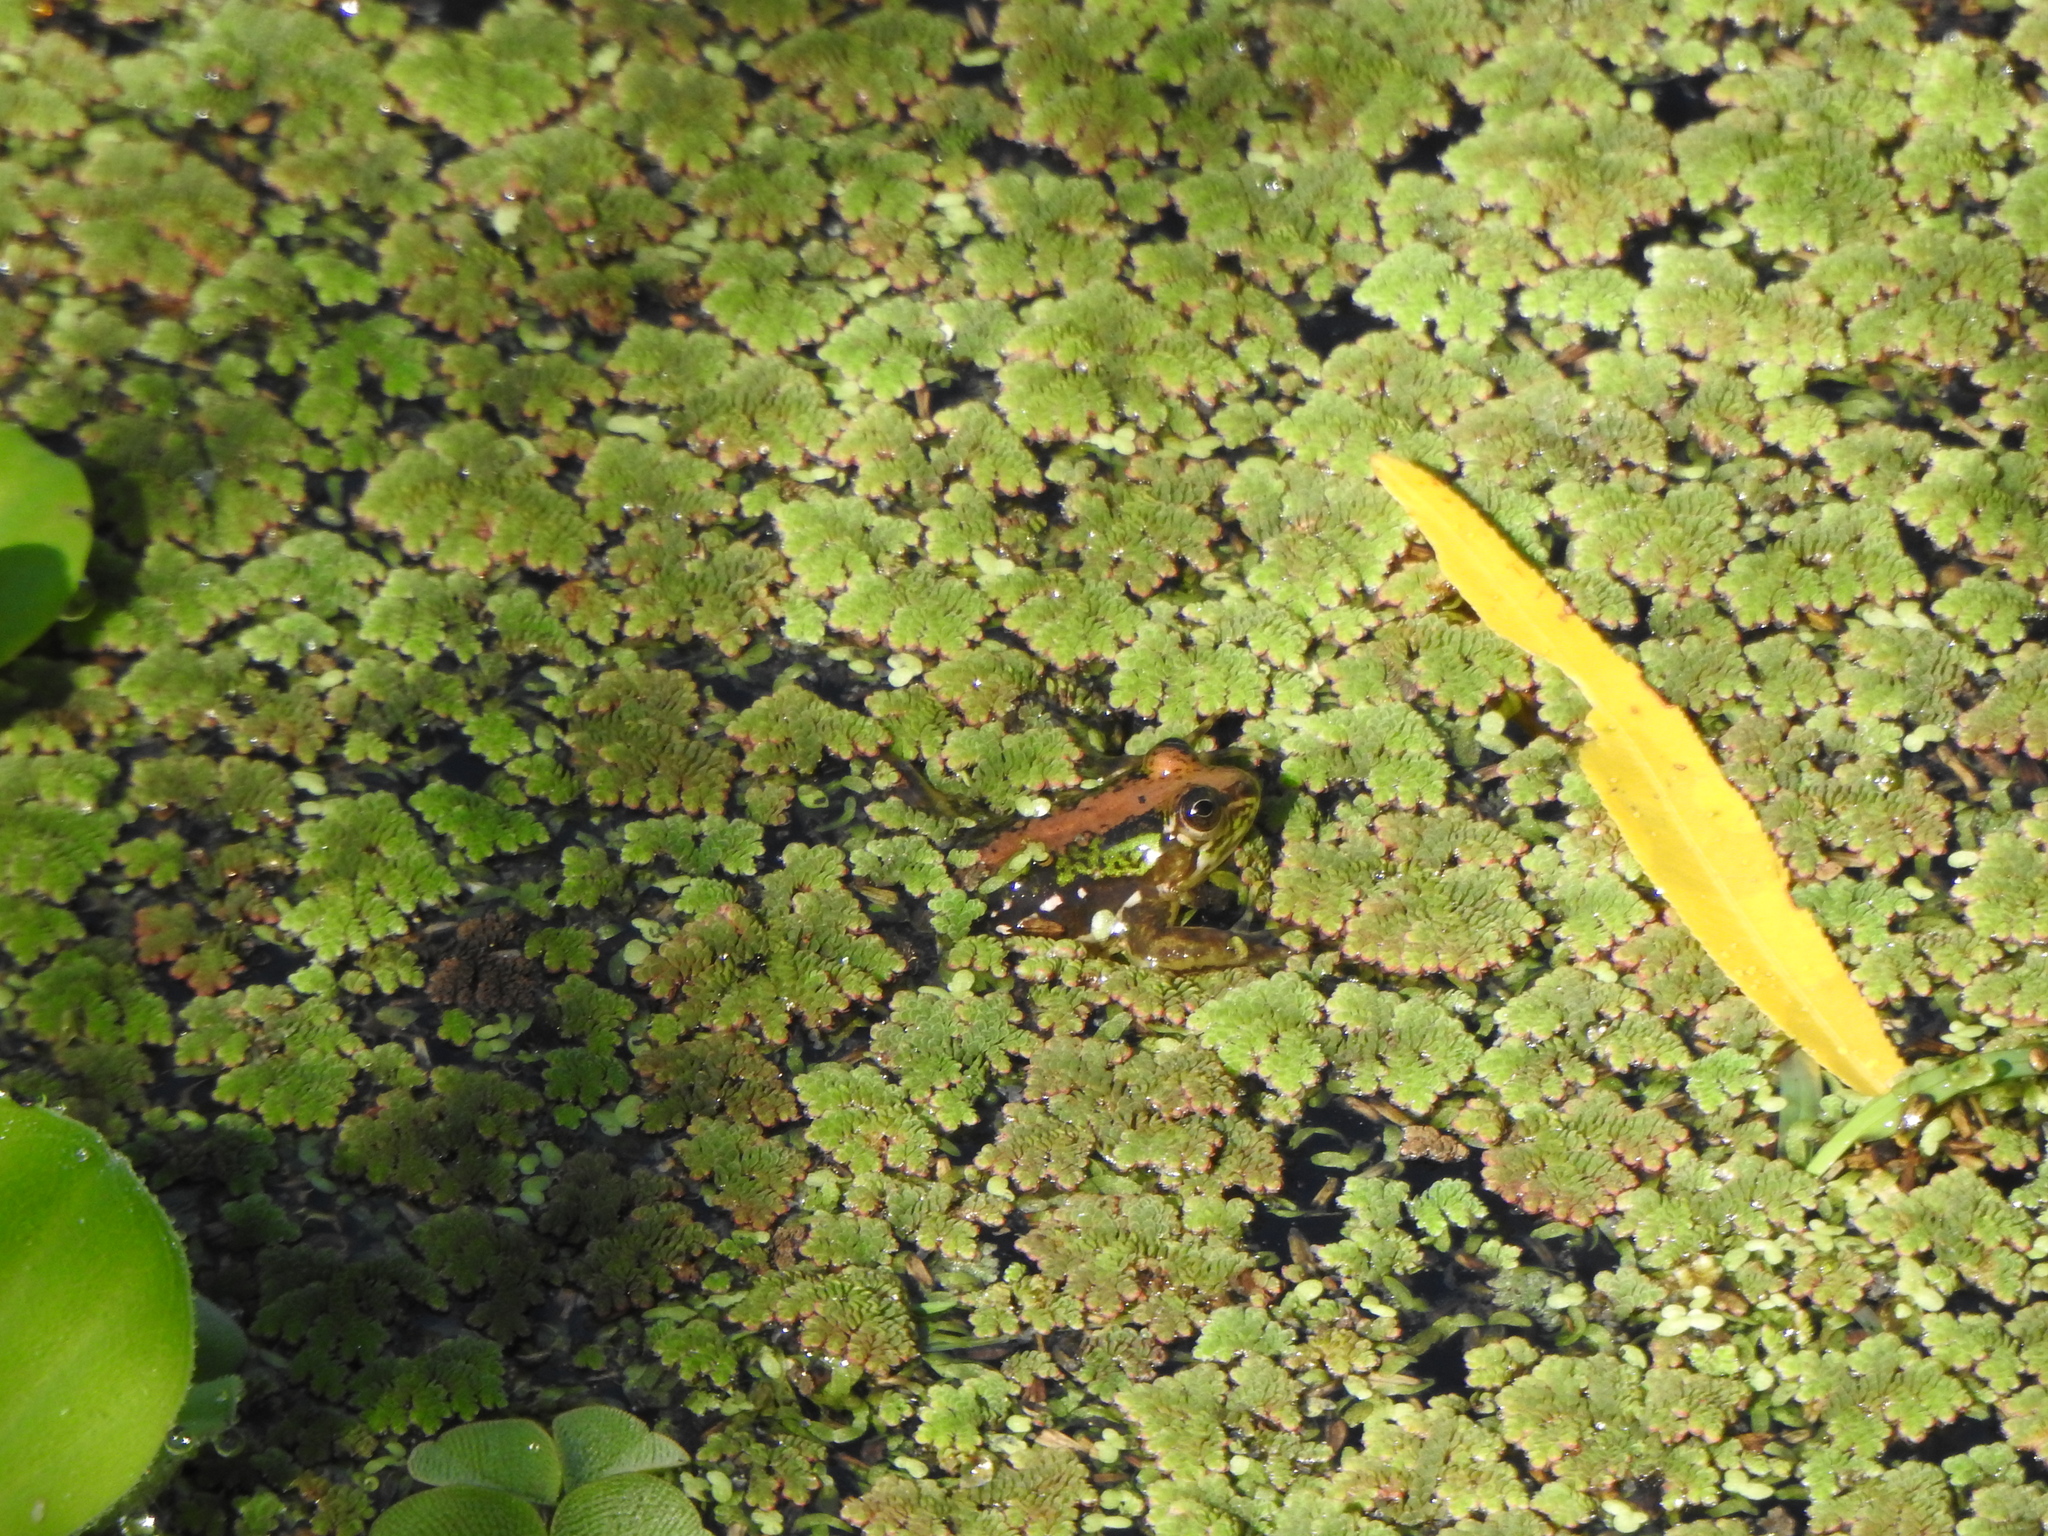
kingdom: Animalia
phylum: Chordata
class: Amphibia
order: Anura
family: Hylidae
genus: Pseudis
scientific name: Pseudis minuta
